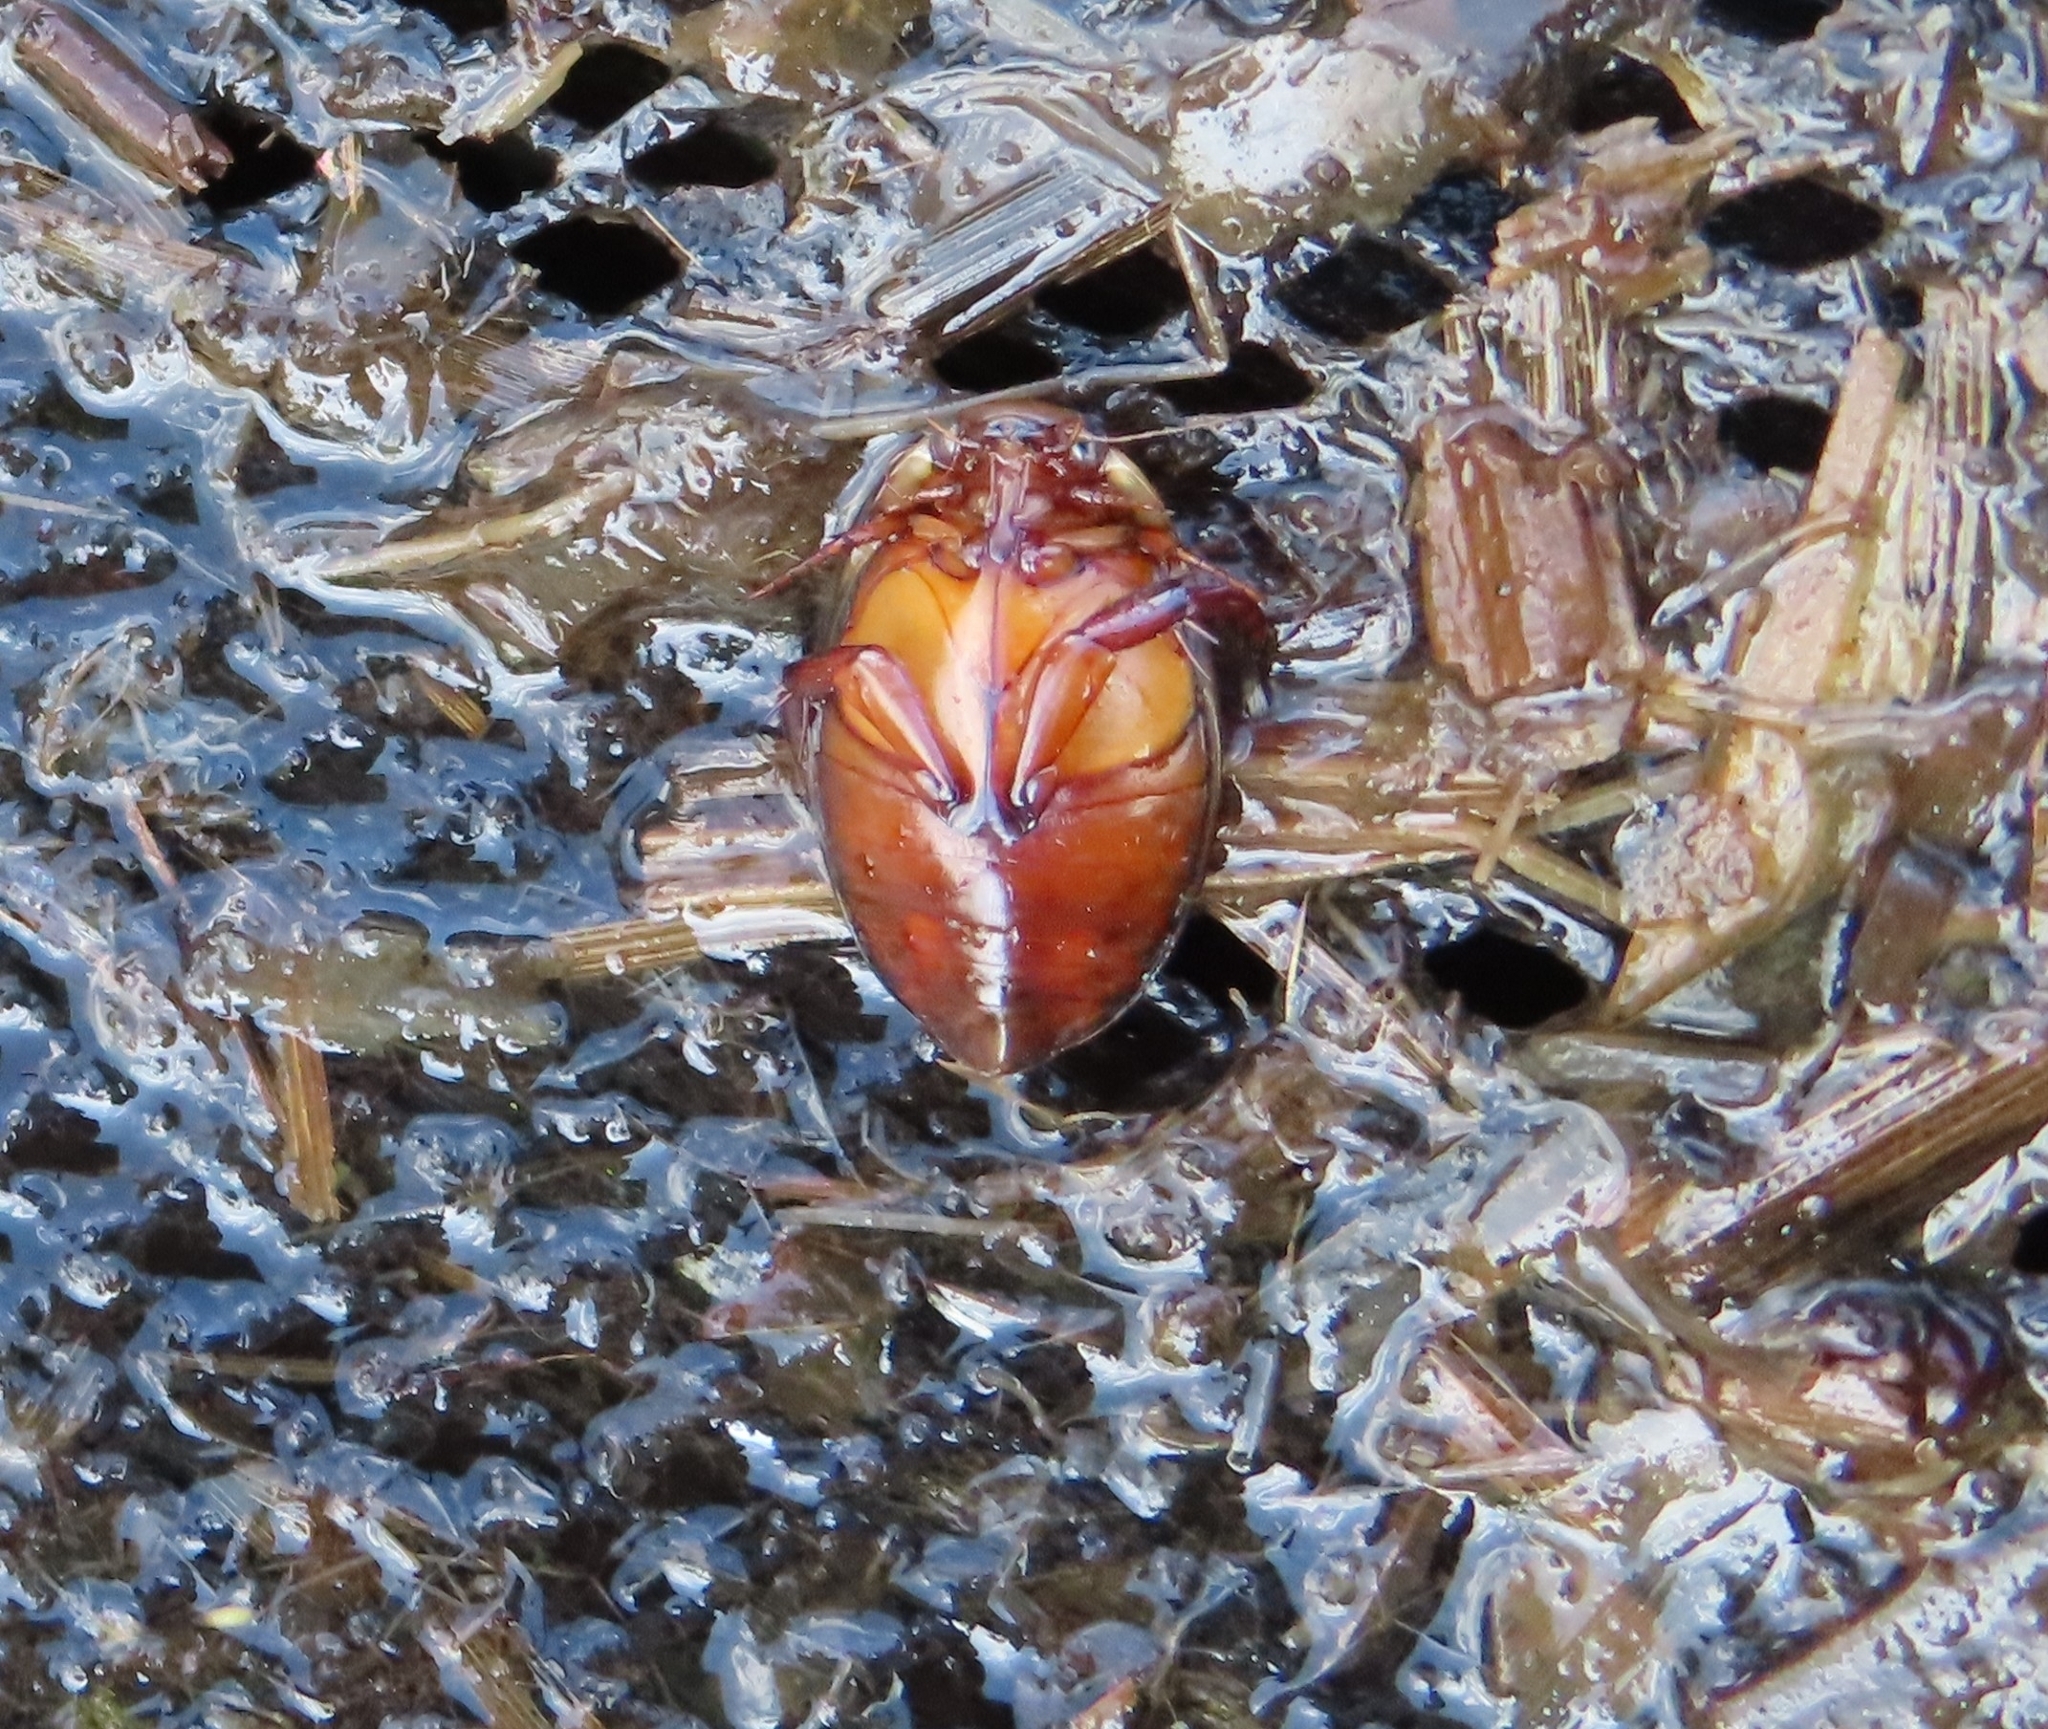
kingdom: Animalia
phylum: Arthropoda
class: Insecta
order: Coleoptera
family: Dytiscidae
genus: Graphoderus
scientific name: Graphoderus cinereus
